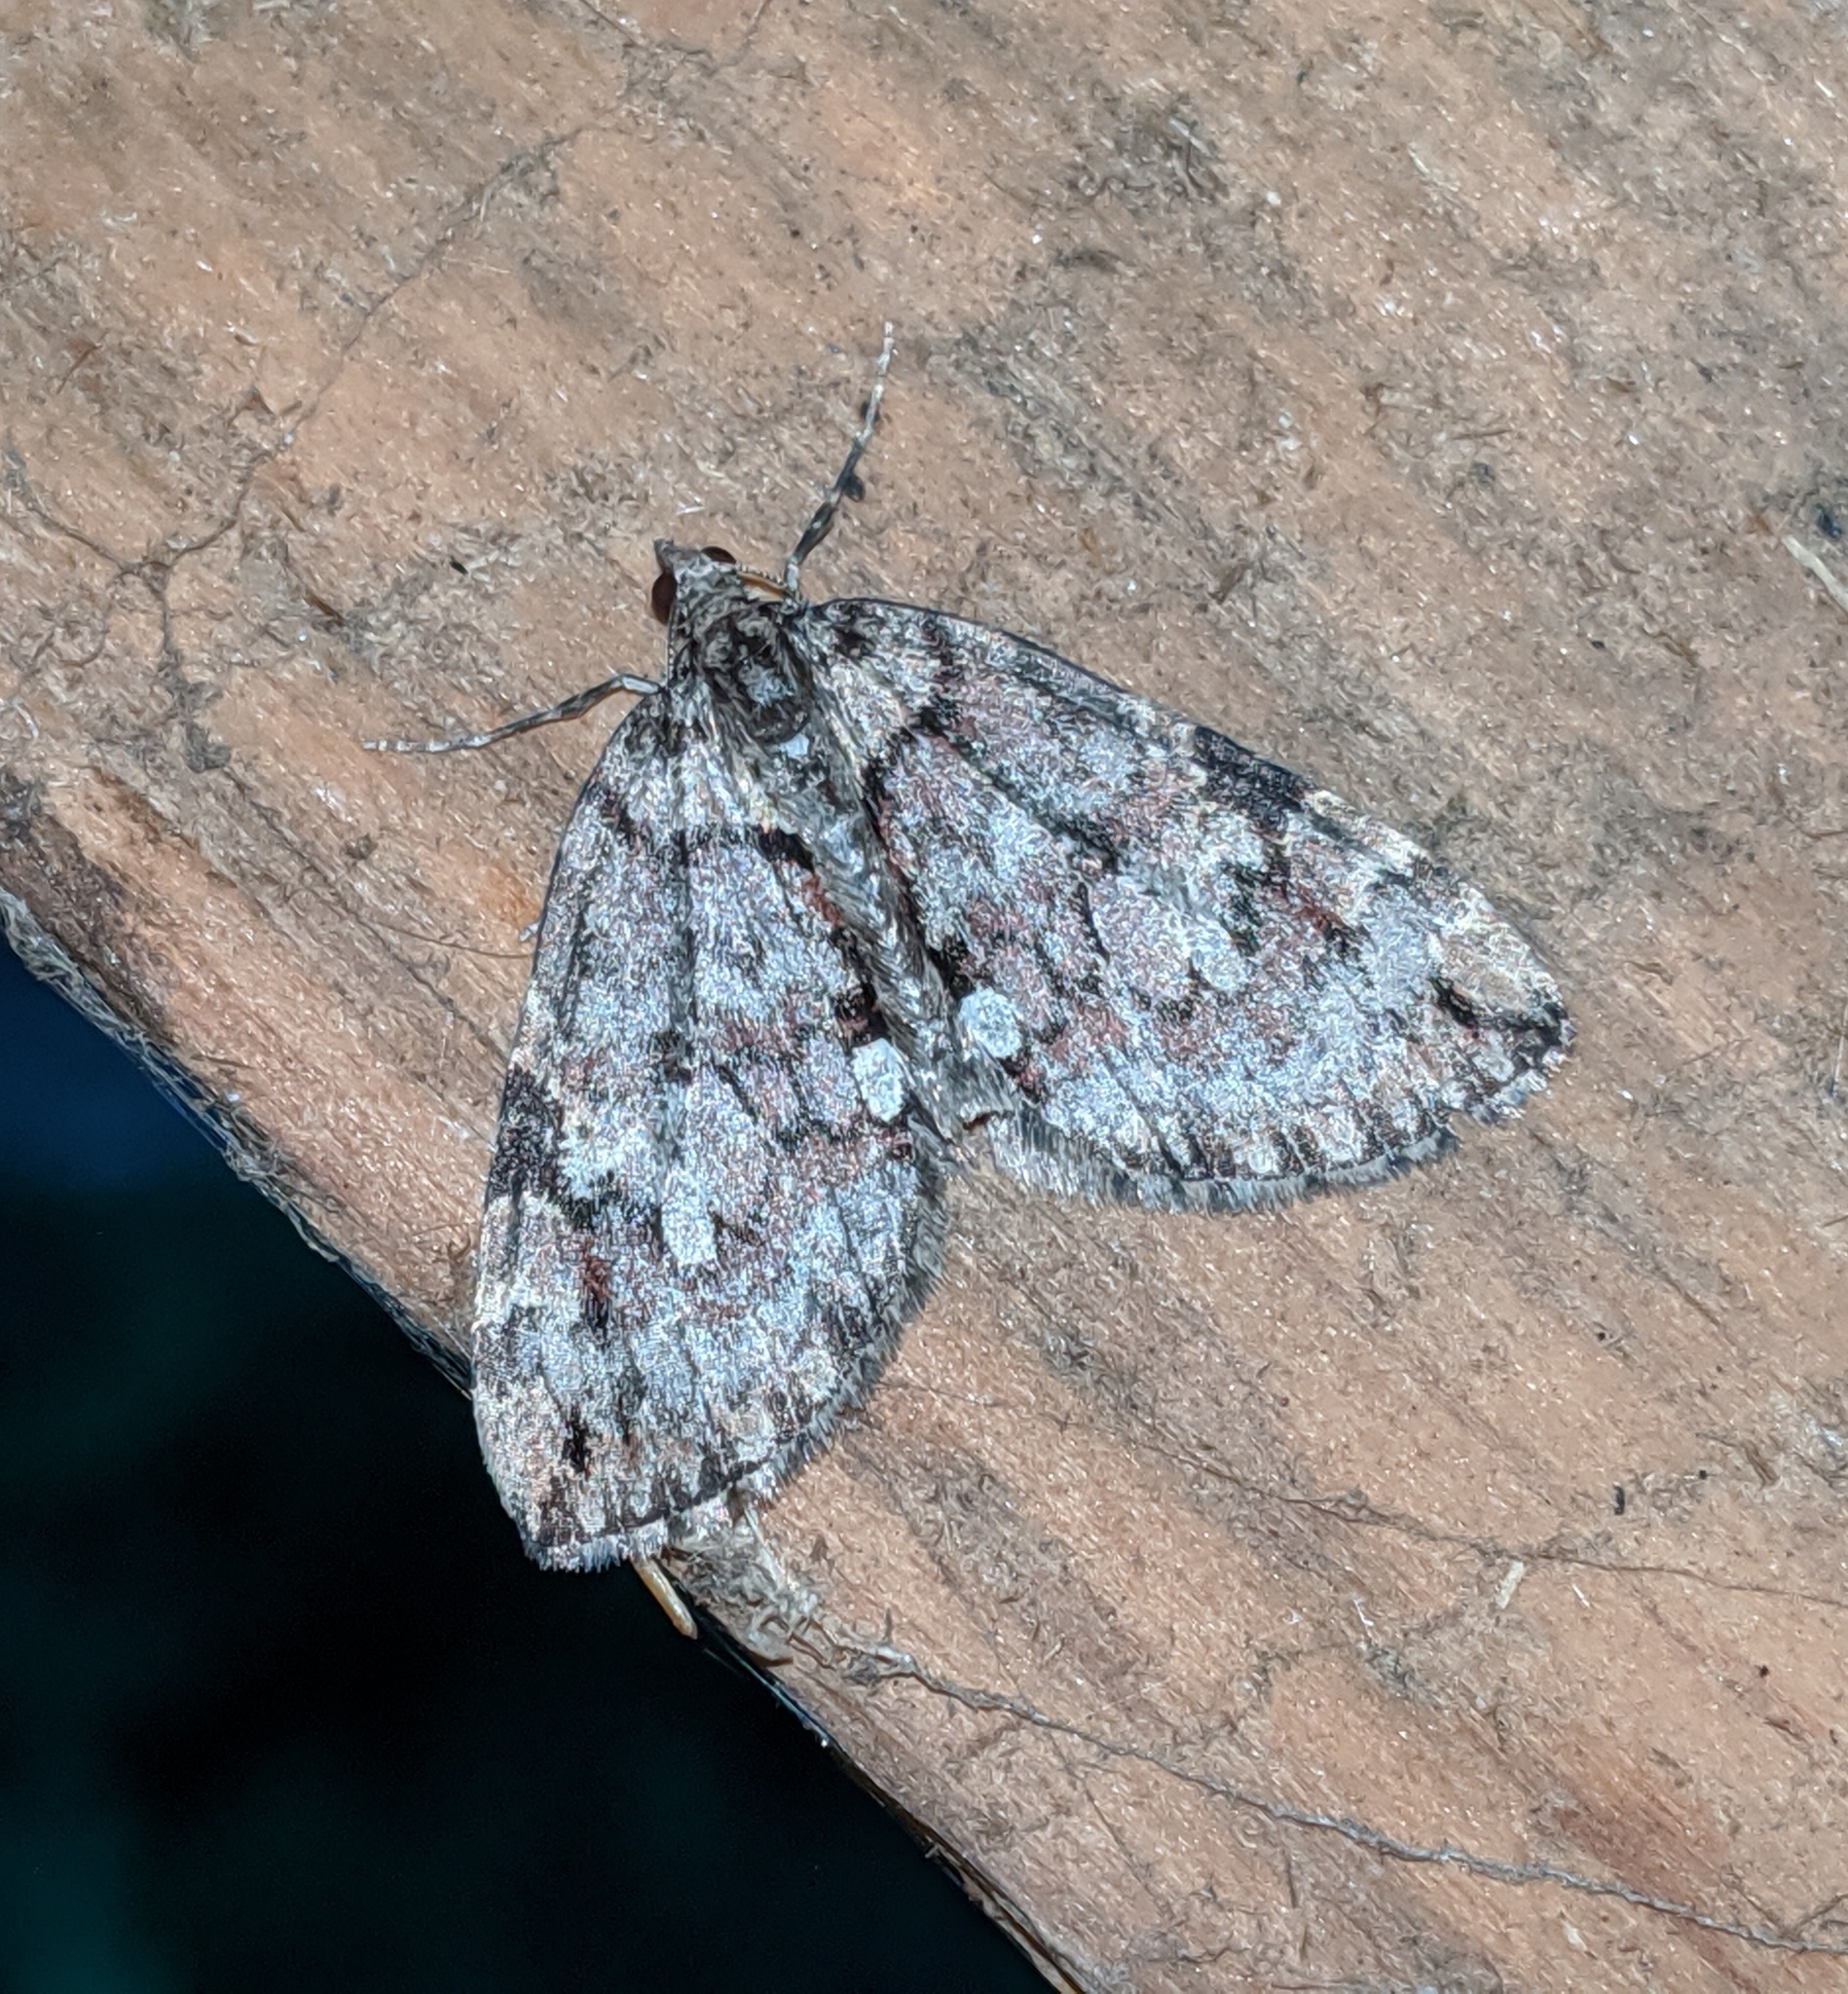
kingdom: Animalia
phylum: Arthropoda
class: Insecta
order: Lepidoptera
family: Geometridae
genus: Hydriomena
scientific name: Hydriomena irata
